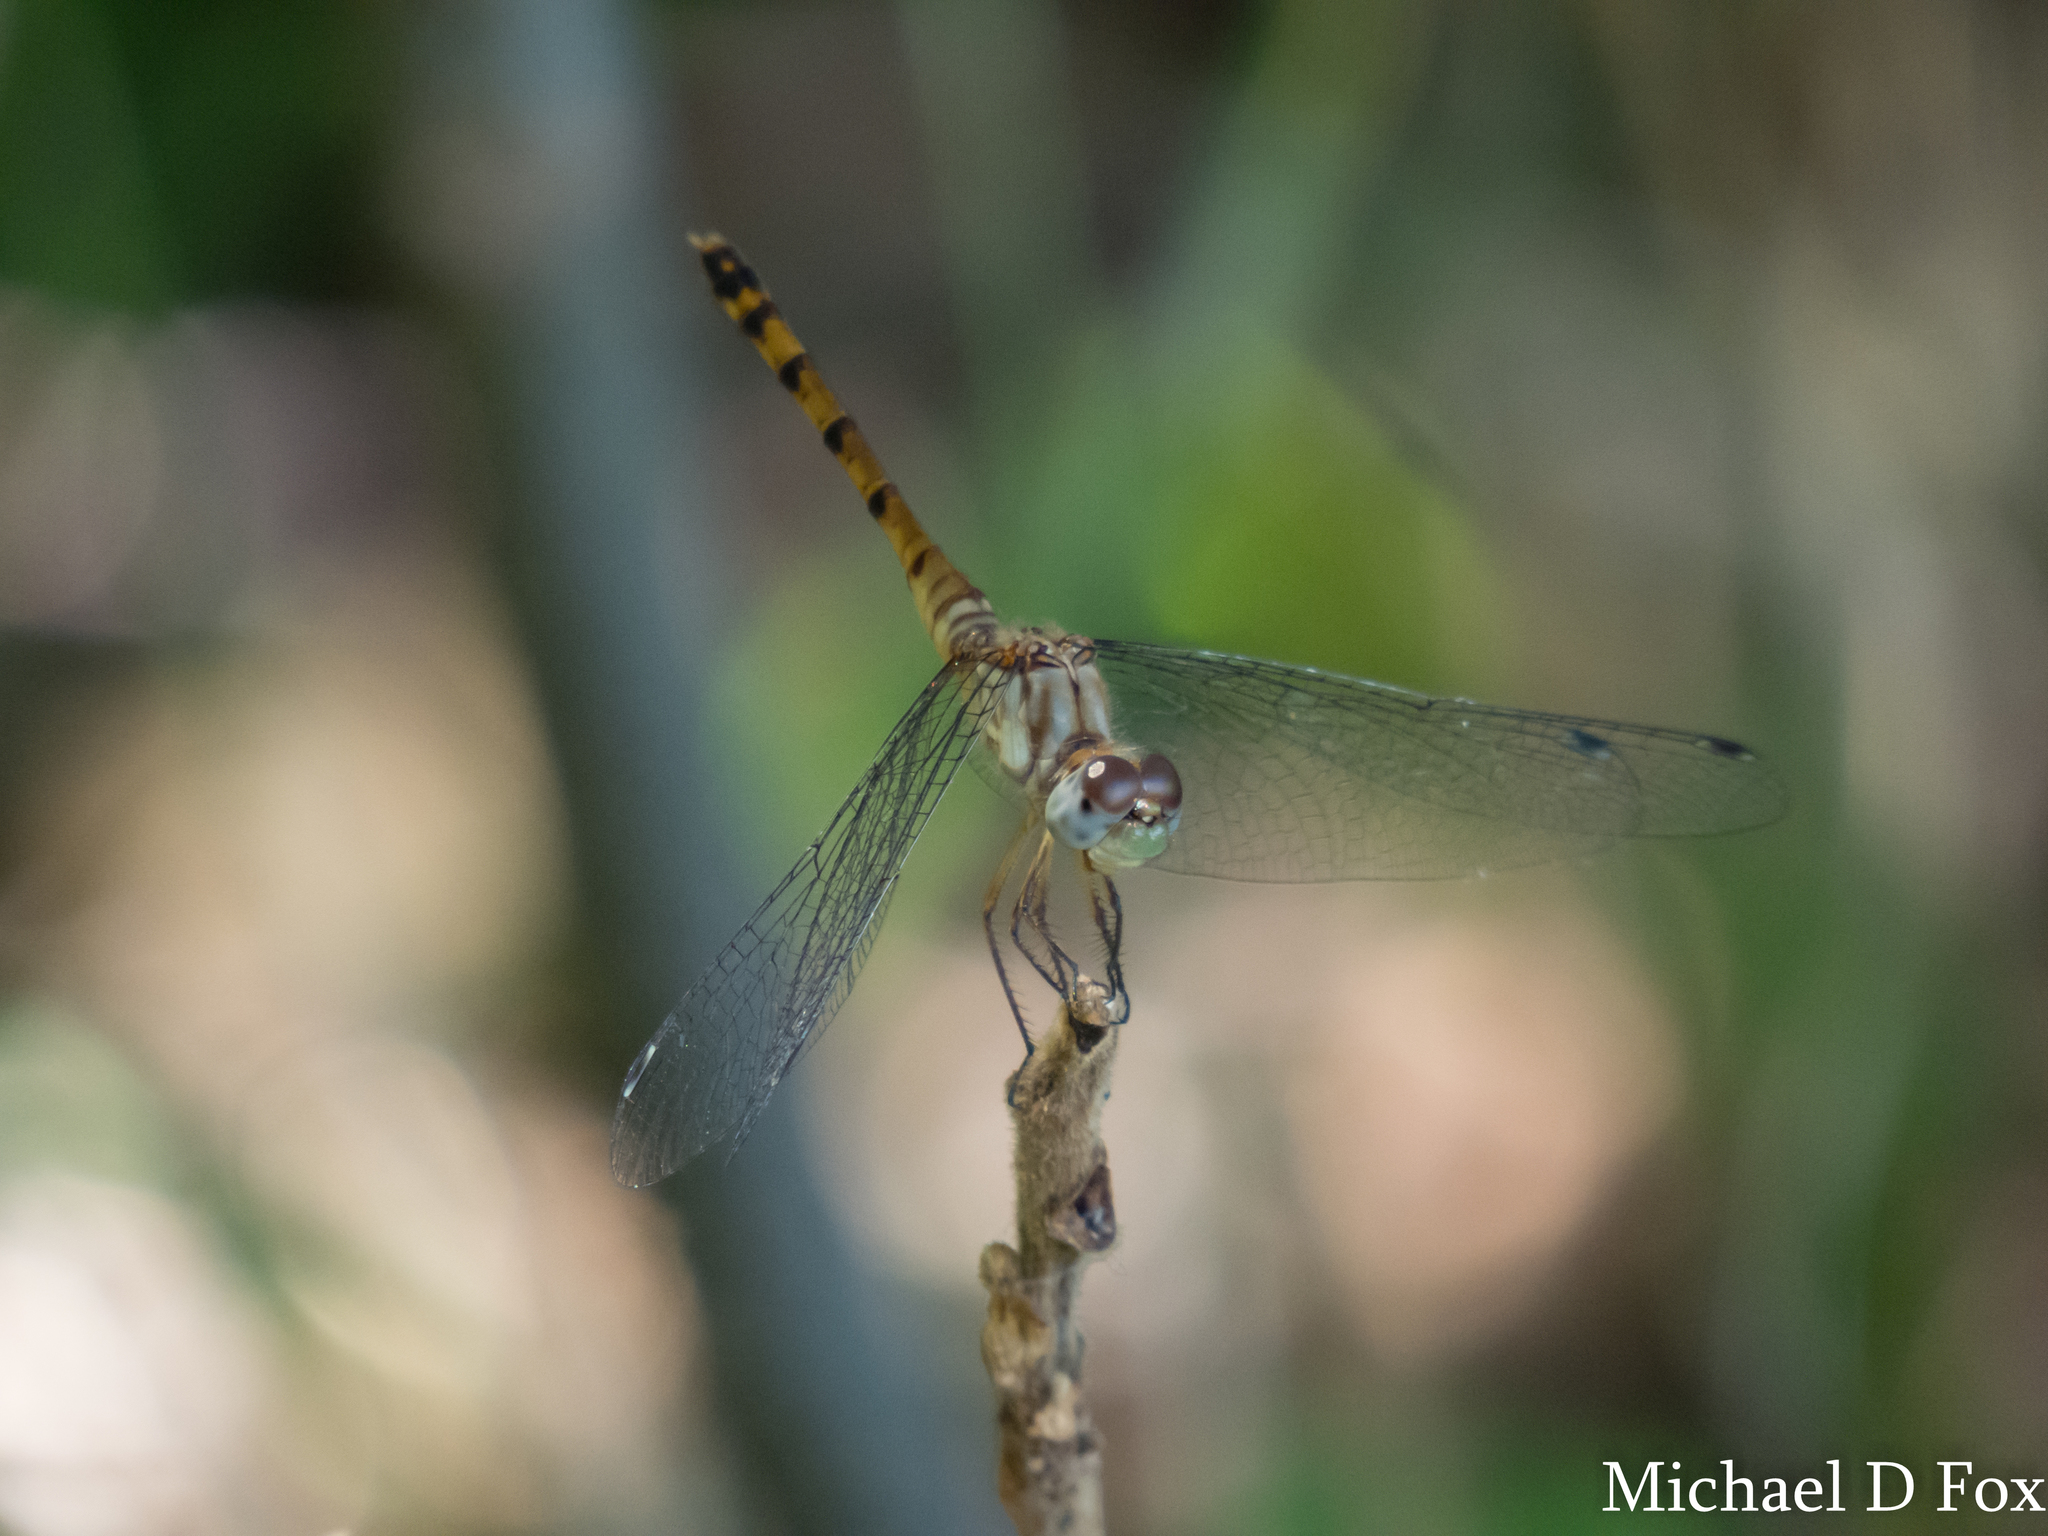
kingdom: Animalia
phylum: Arthropoda
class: Insecta
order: Odonata
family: Libellulidae
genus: Sympetrum
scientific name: Sympetrum ambiguum
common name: Blue-faced meadowhawk
